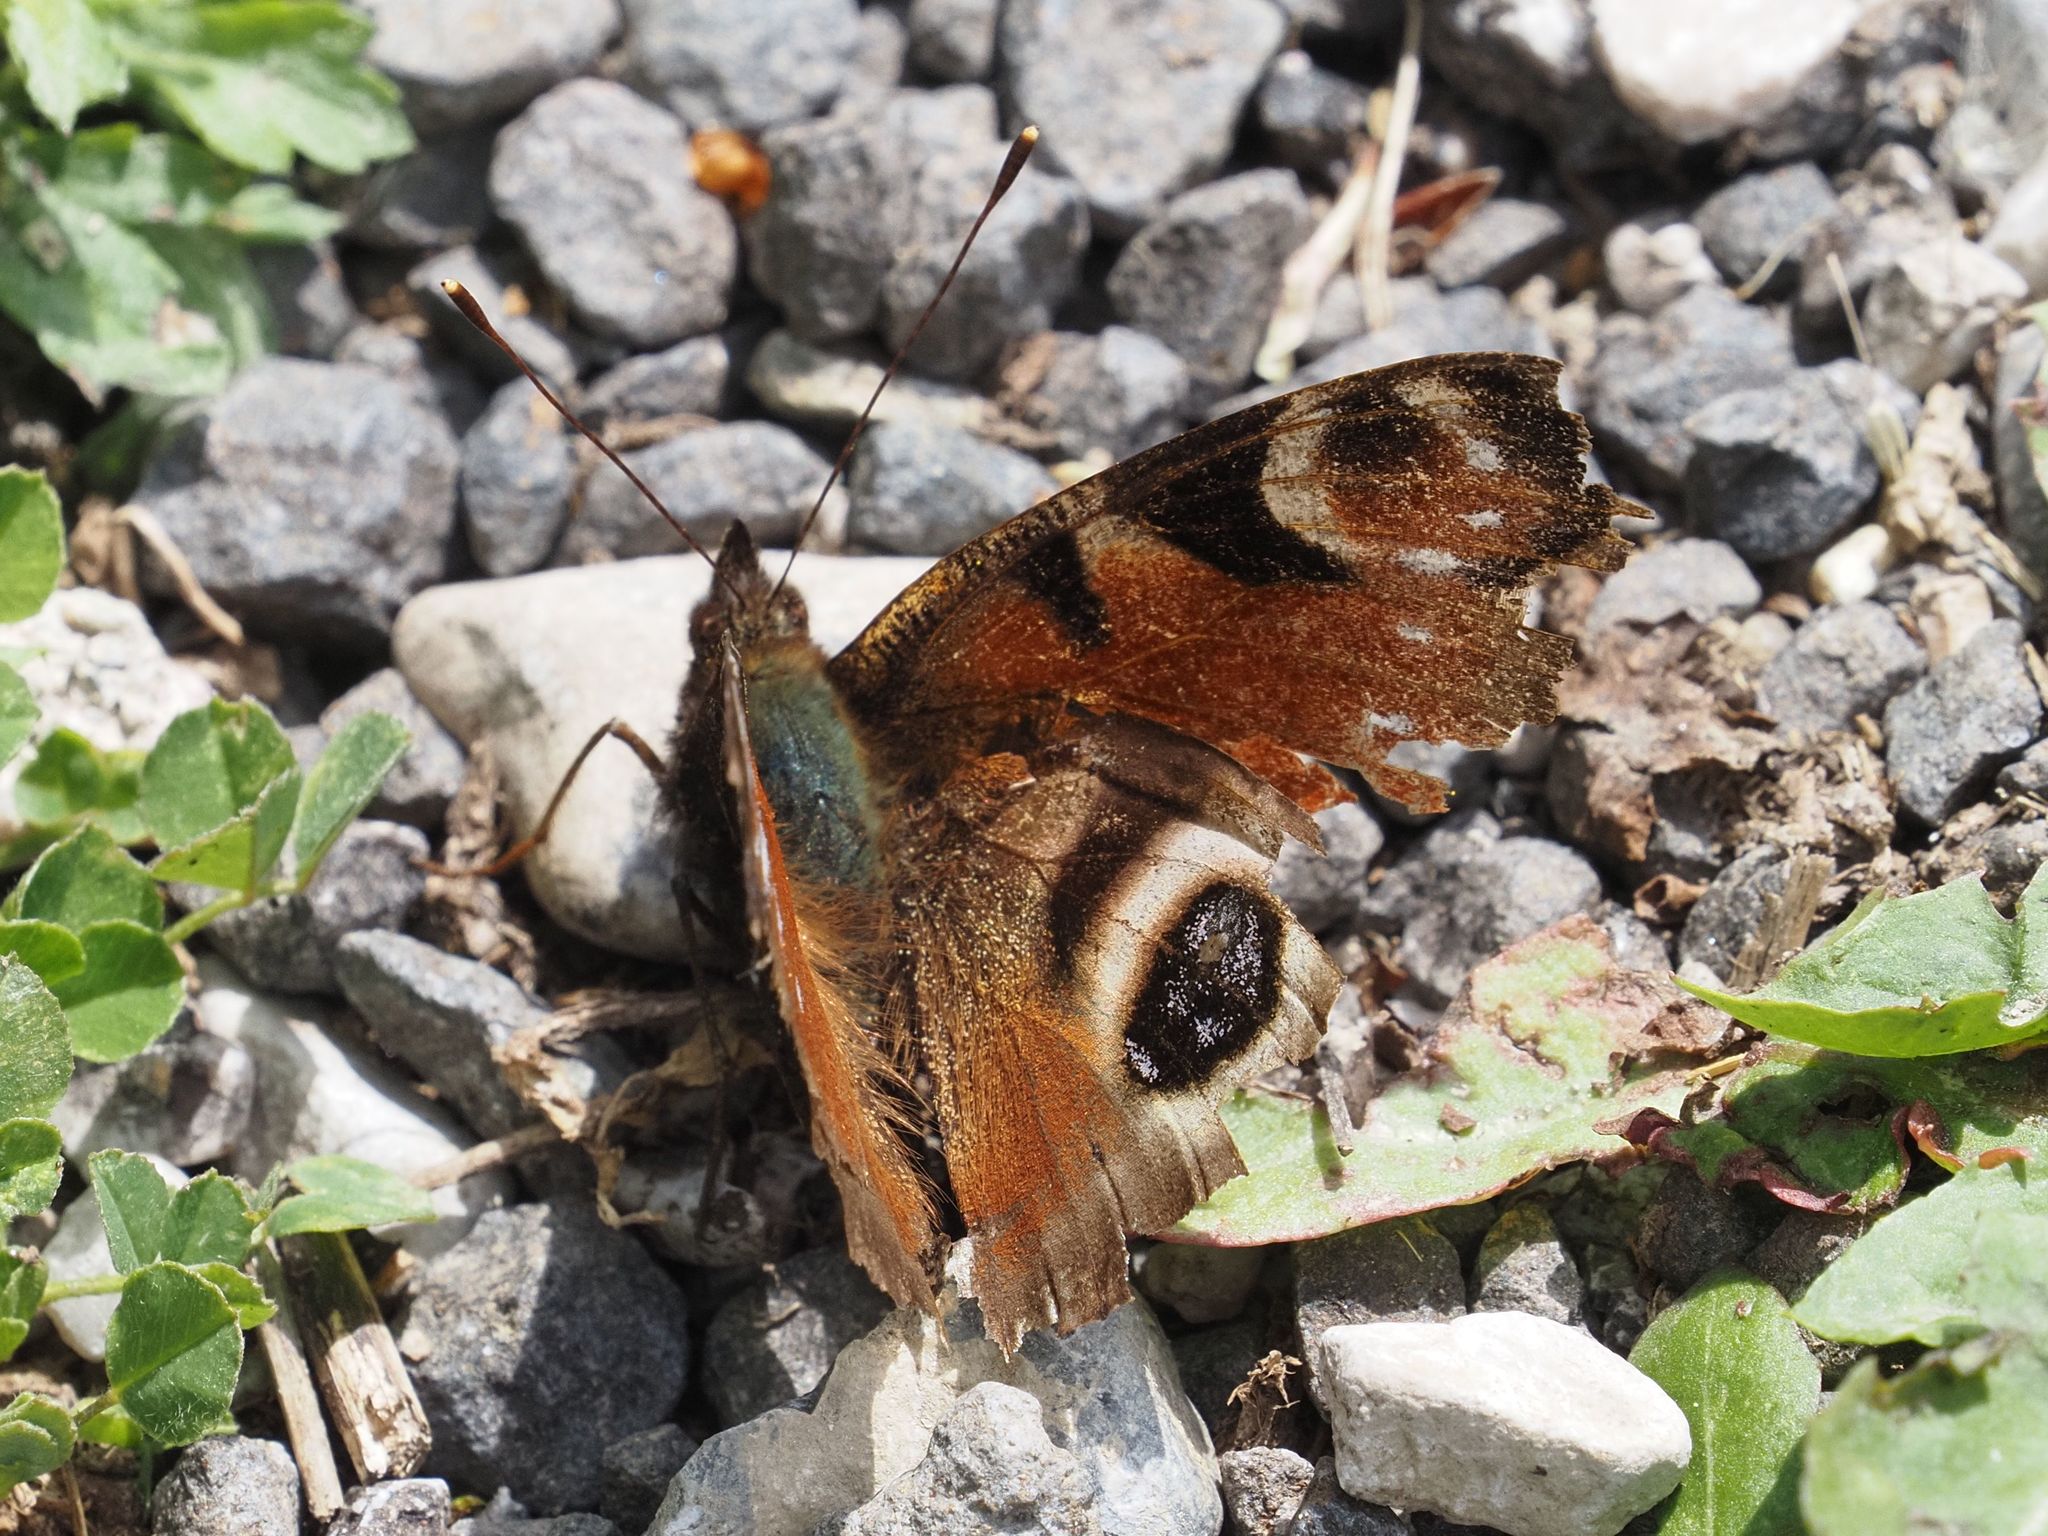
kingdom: Animalia
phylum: Arthropoda
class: Insecta
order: Lepidoptera
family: Nymphalidae
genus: Aglais
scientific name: Aglais io
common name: Peacock
